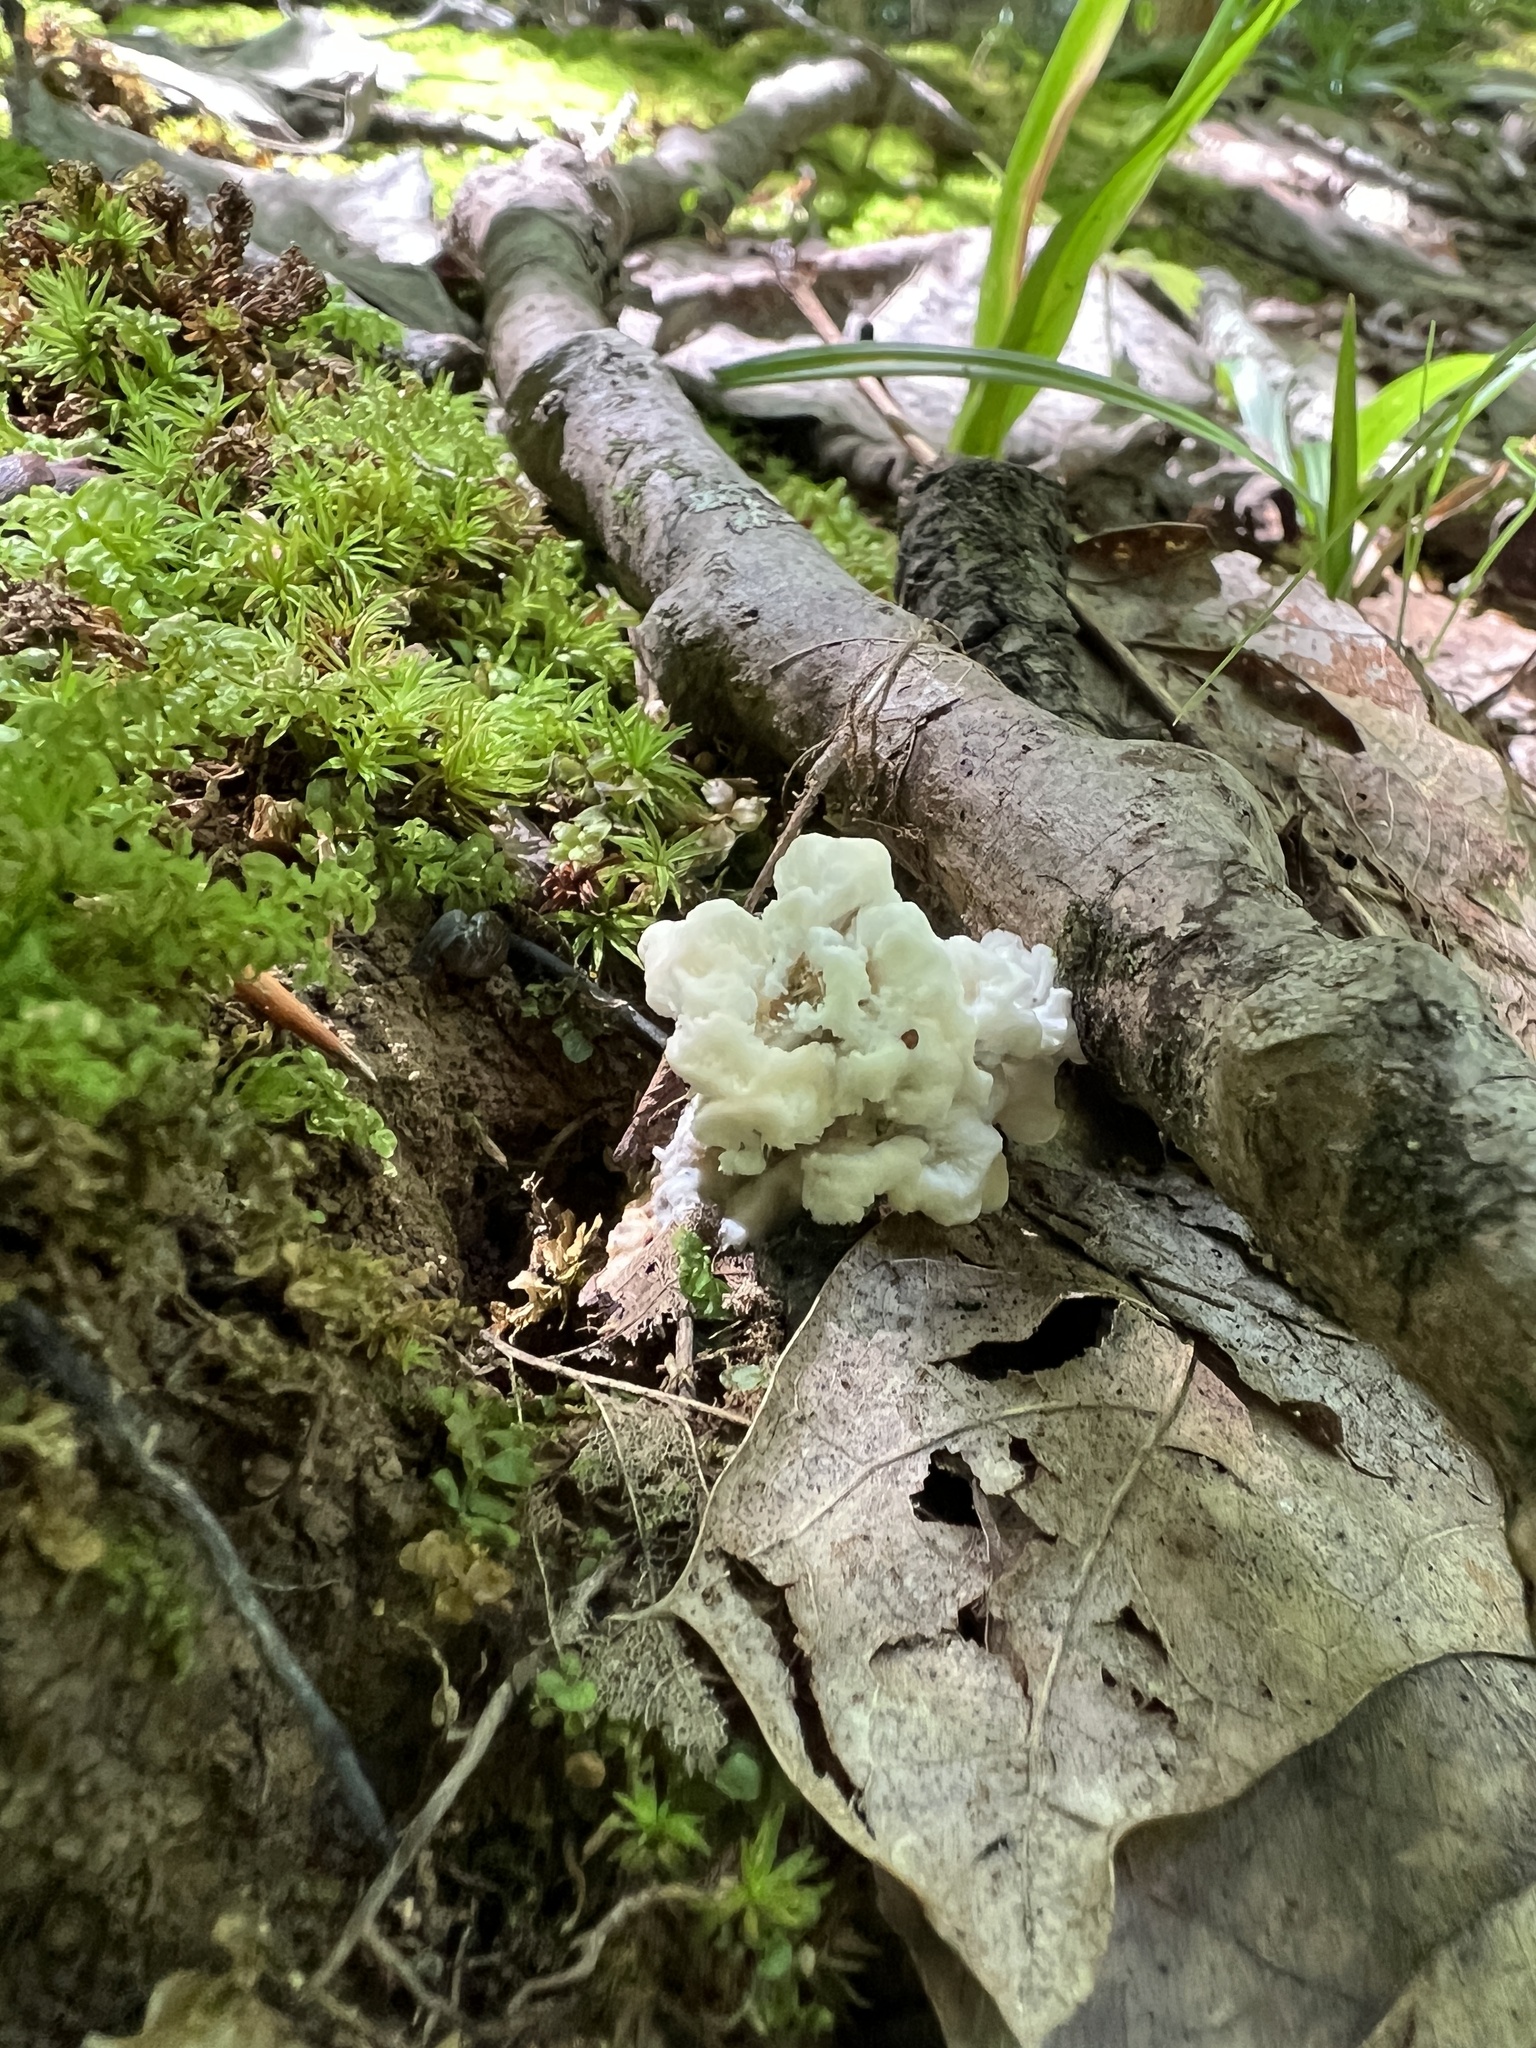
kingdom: Fungi
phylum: Basidiomycota
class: Agaricomycetes
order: Sebacinales
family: Sebacinaceae
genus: Sebacina
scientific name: Sebacina schweinitzii
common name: Jellied false coral fungus
